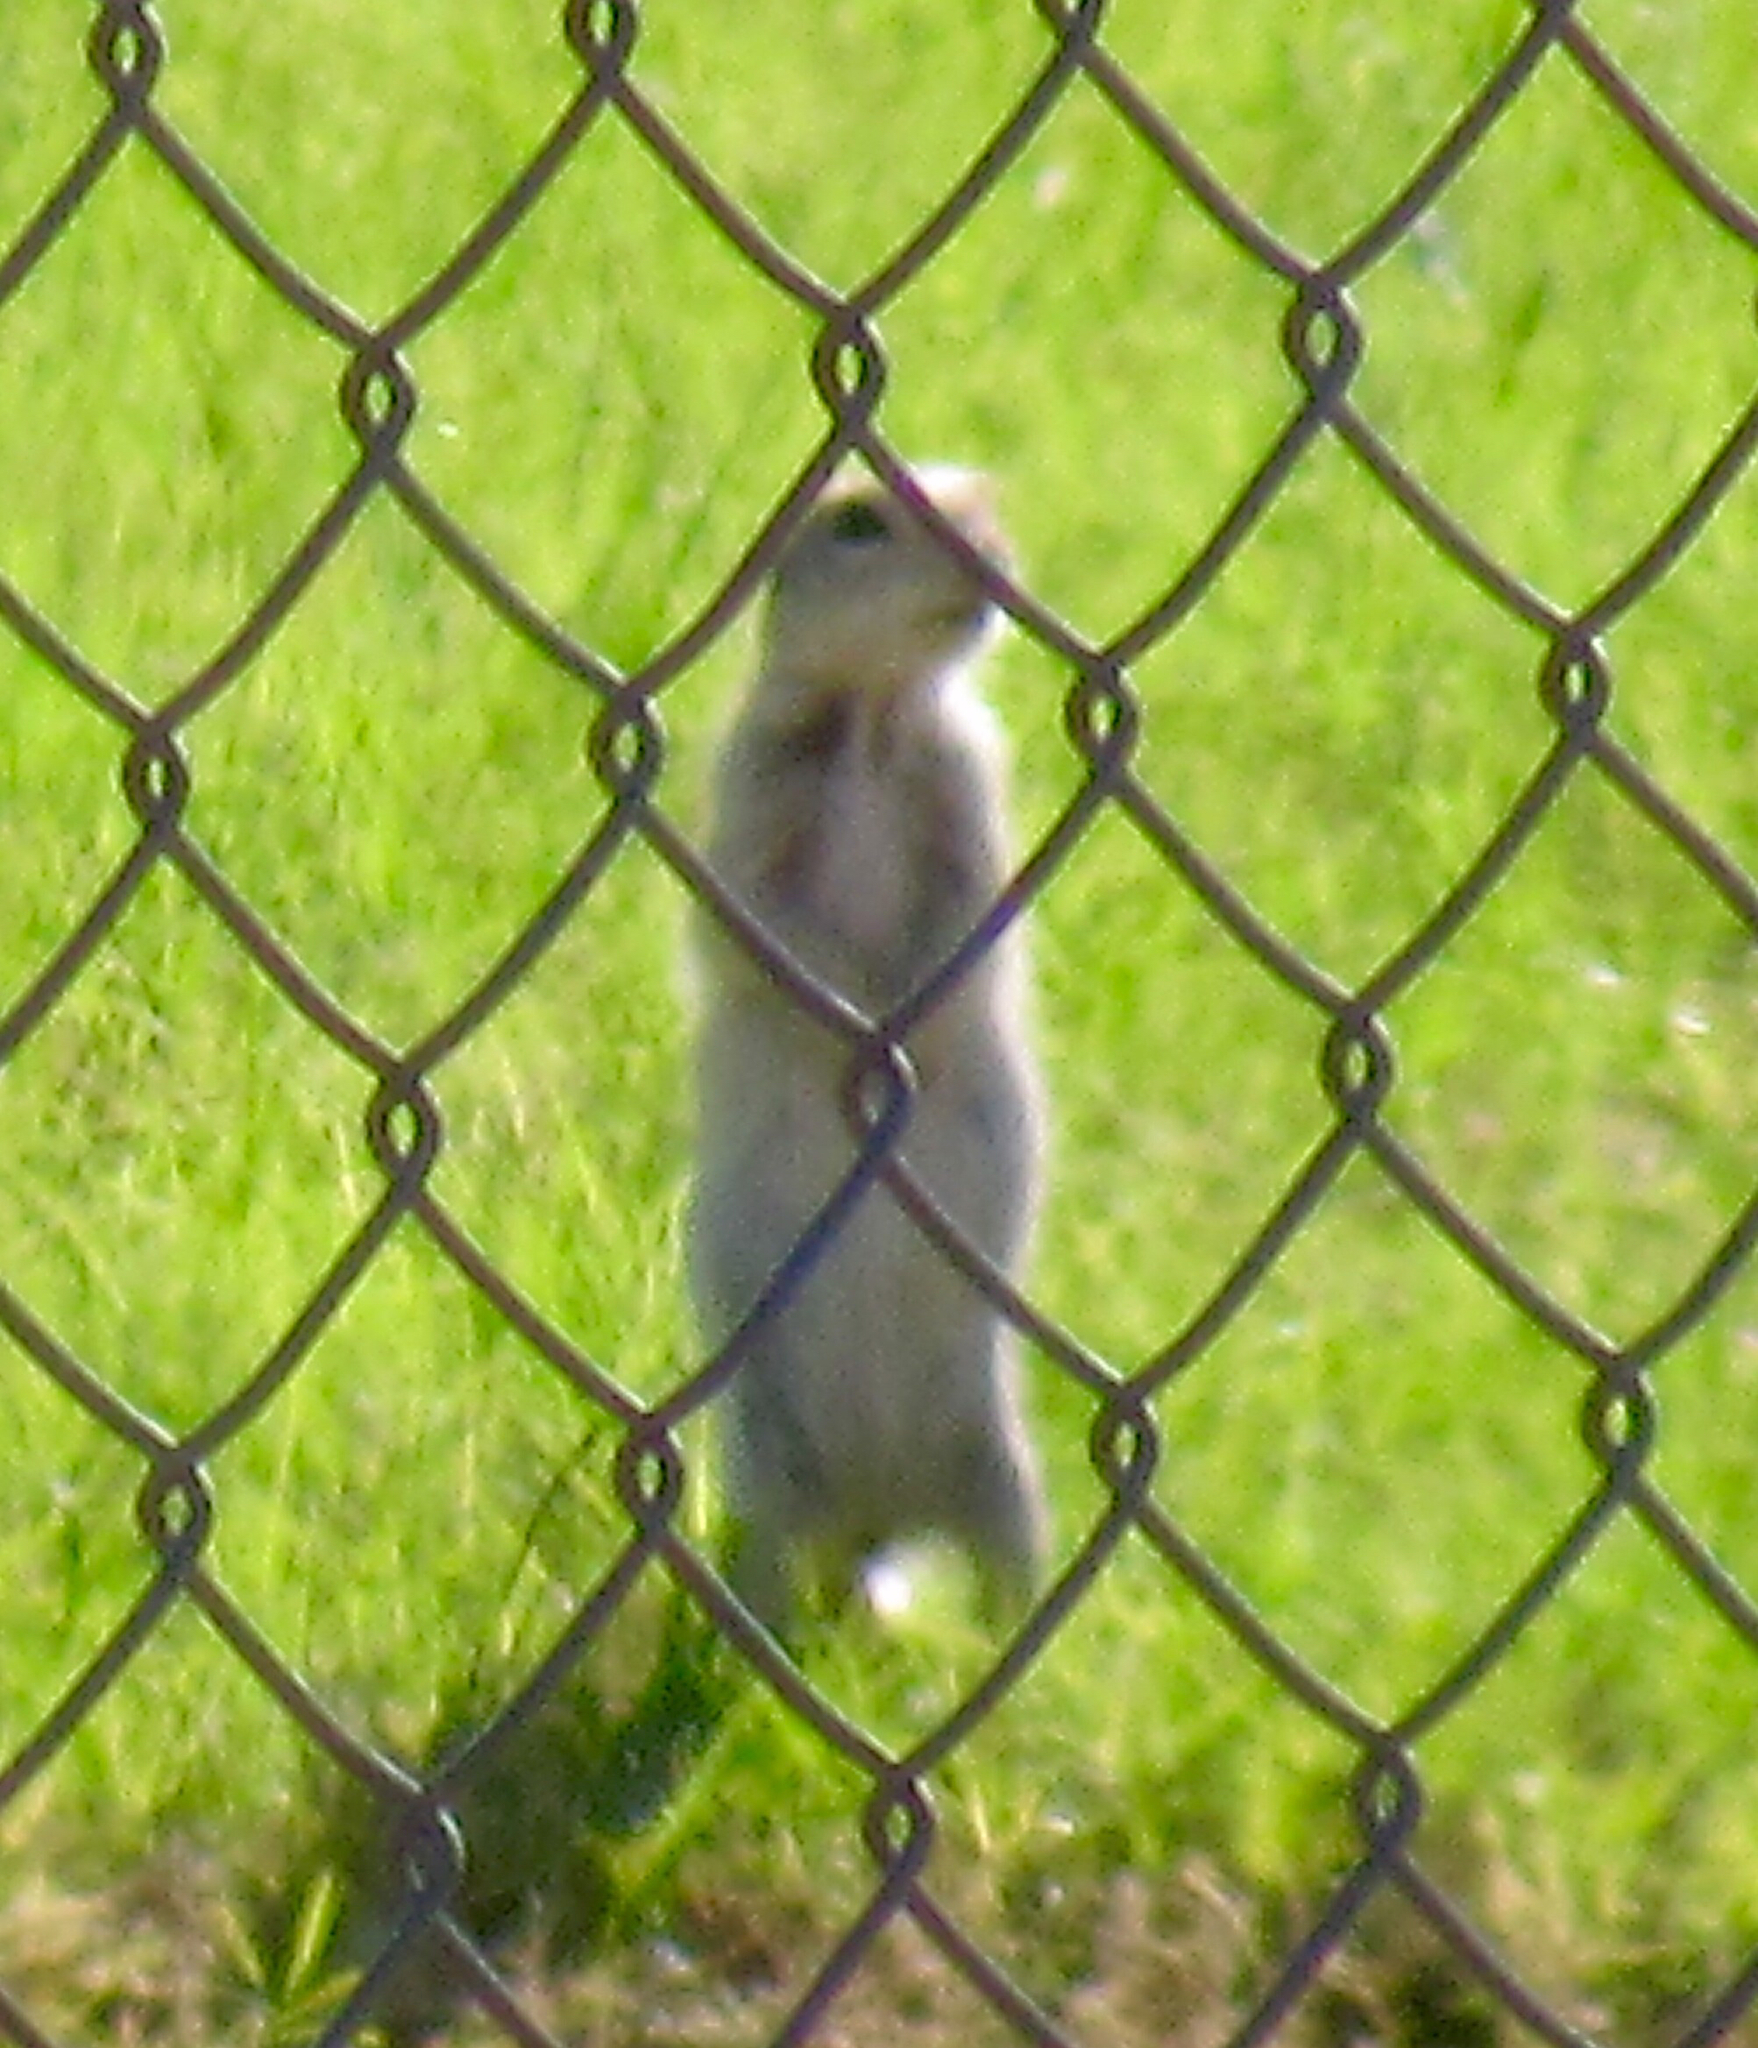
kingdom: Animalia
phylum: Chordata
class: Mammalia
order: Rodentia
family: Sciuridae
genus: Xerospermophilus
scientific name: Xerospermophilus tereticaudus
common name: Round-tailed ground squirrel
